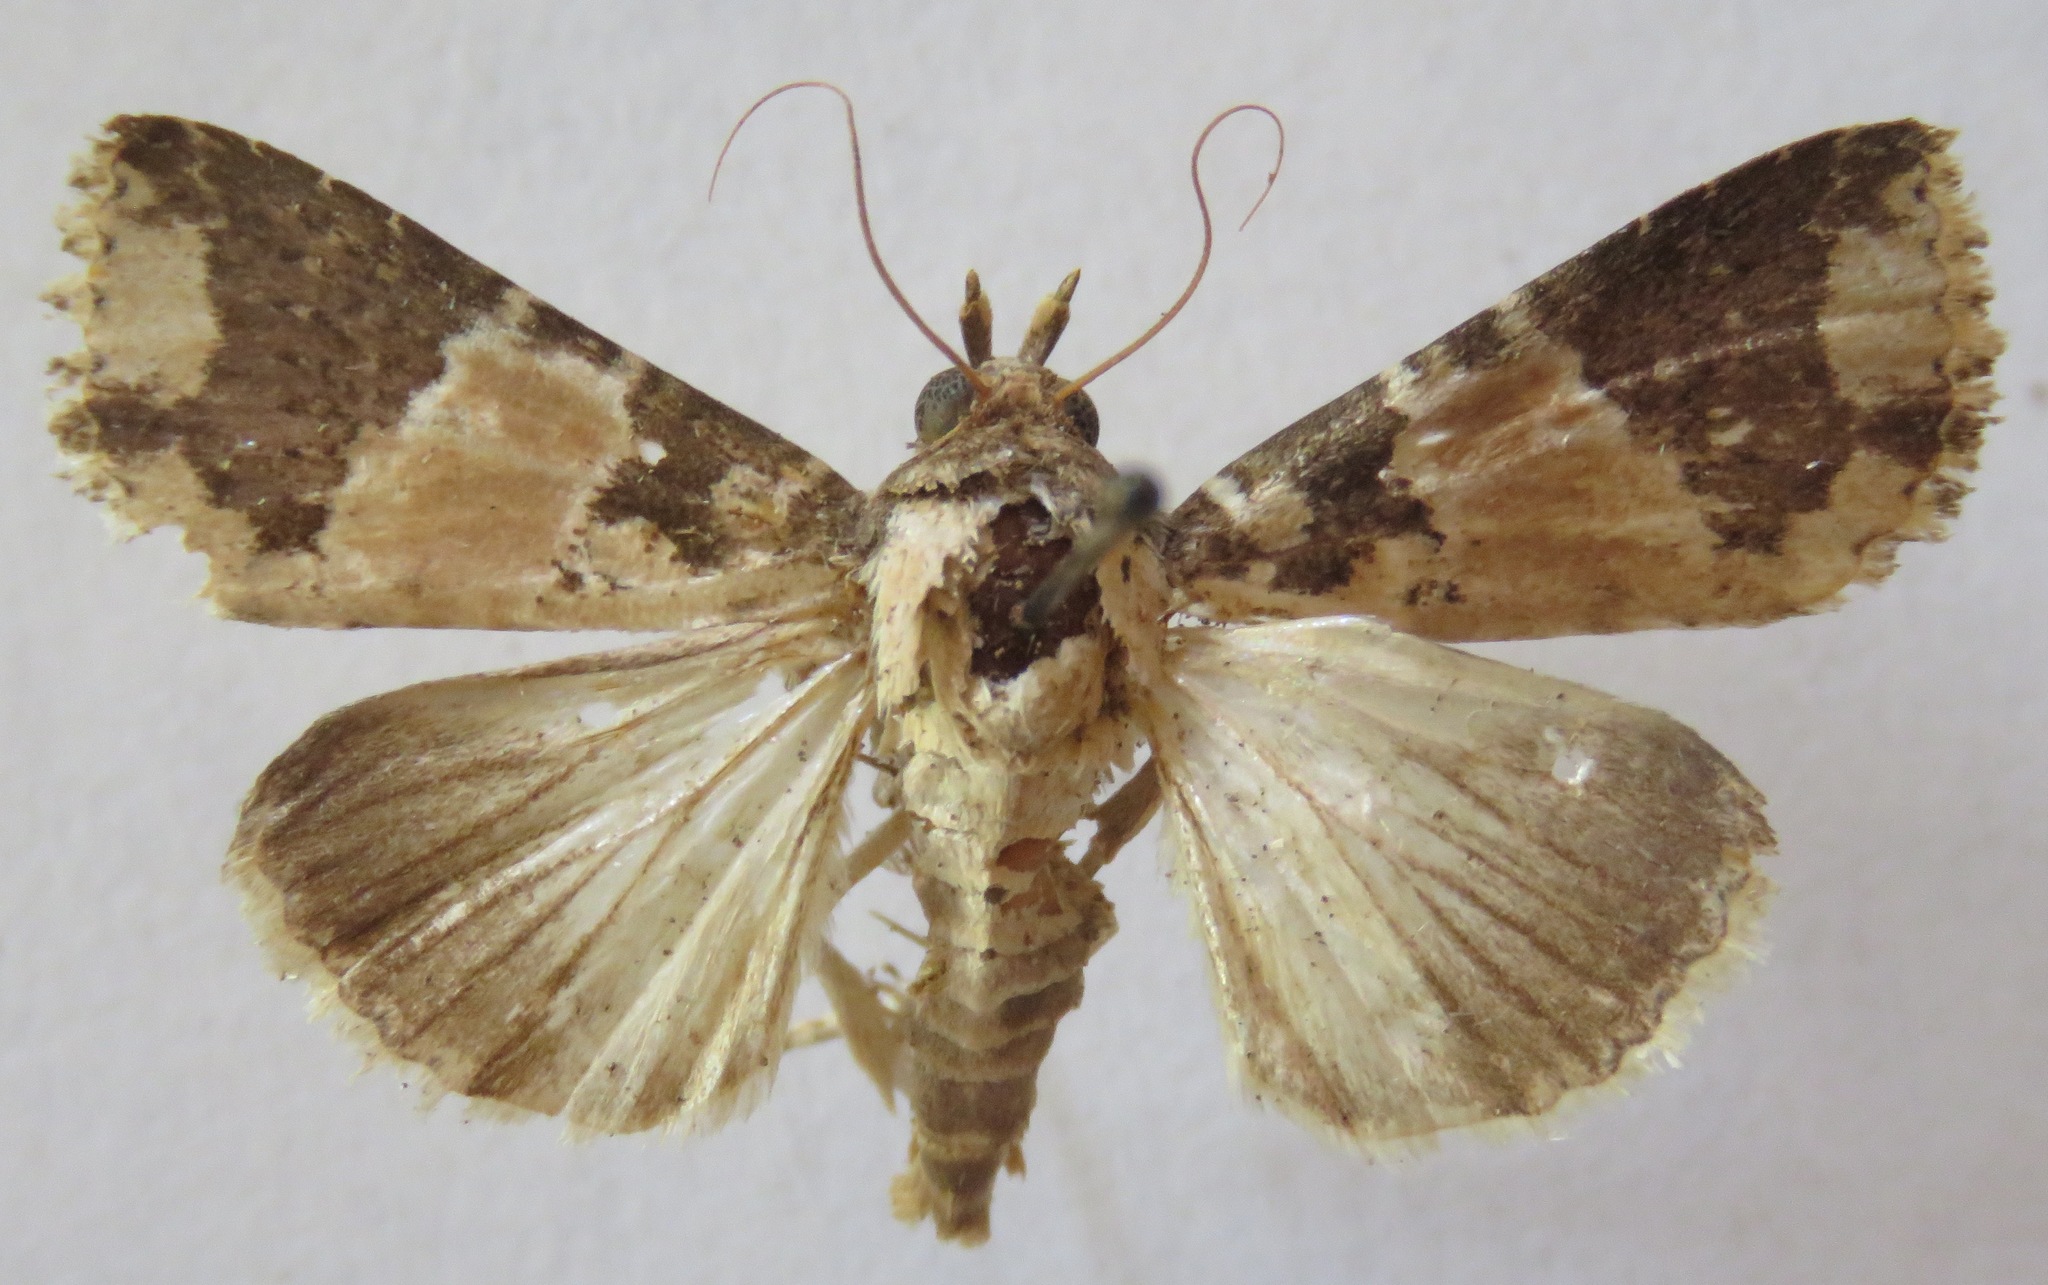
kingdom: Animalia
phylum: Arthropoda
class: Insecta
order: Lepidoptera
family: Noctuidae
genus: Condica
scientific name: Condica cupentia
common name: Splotched groundling
